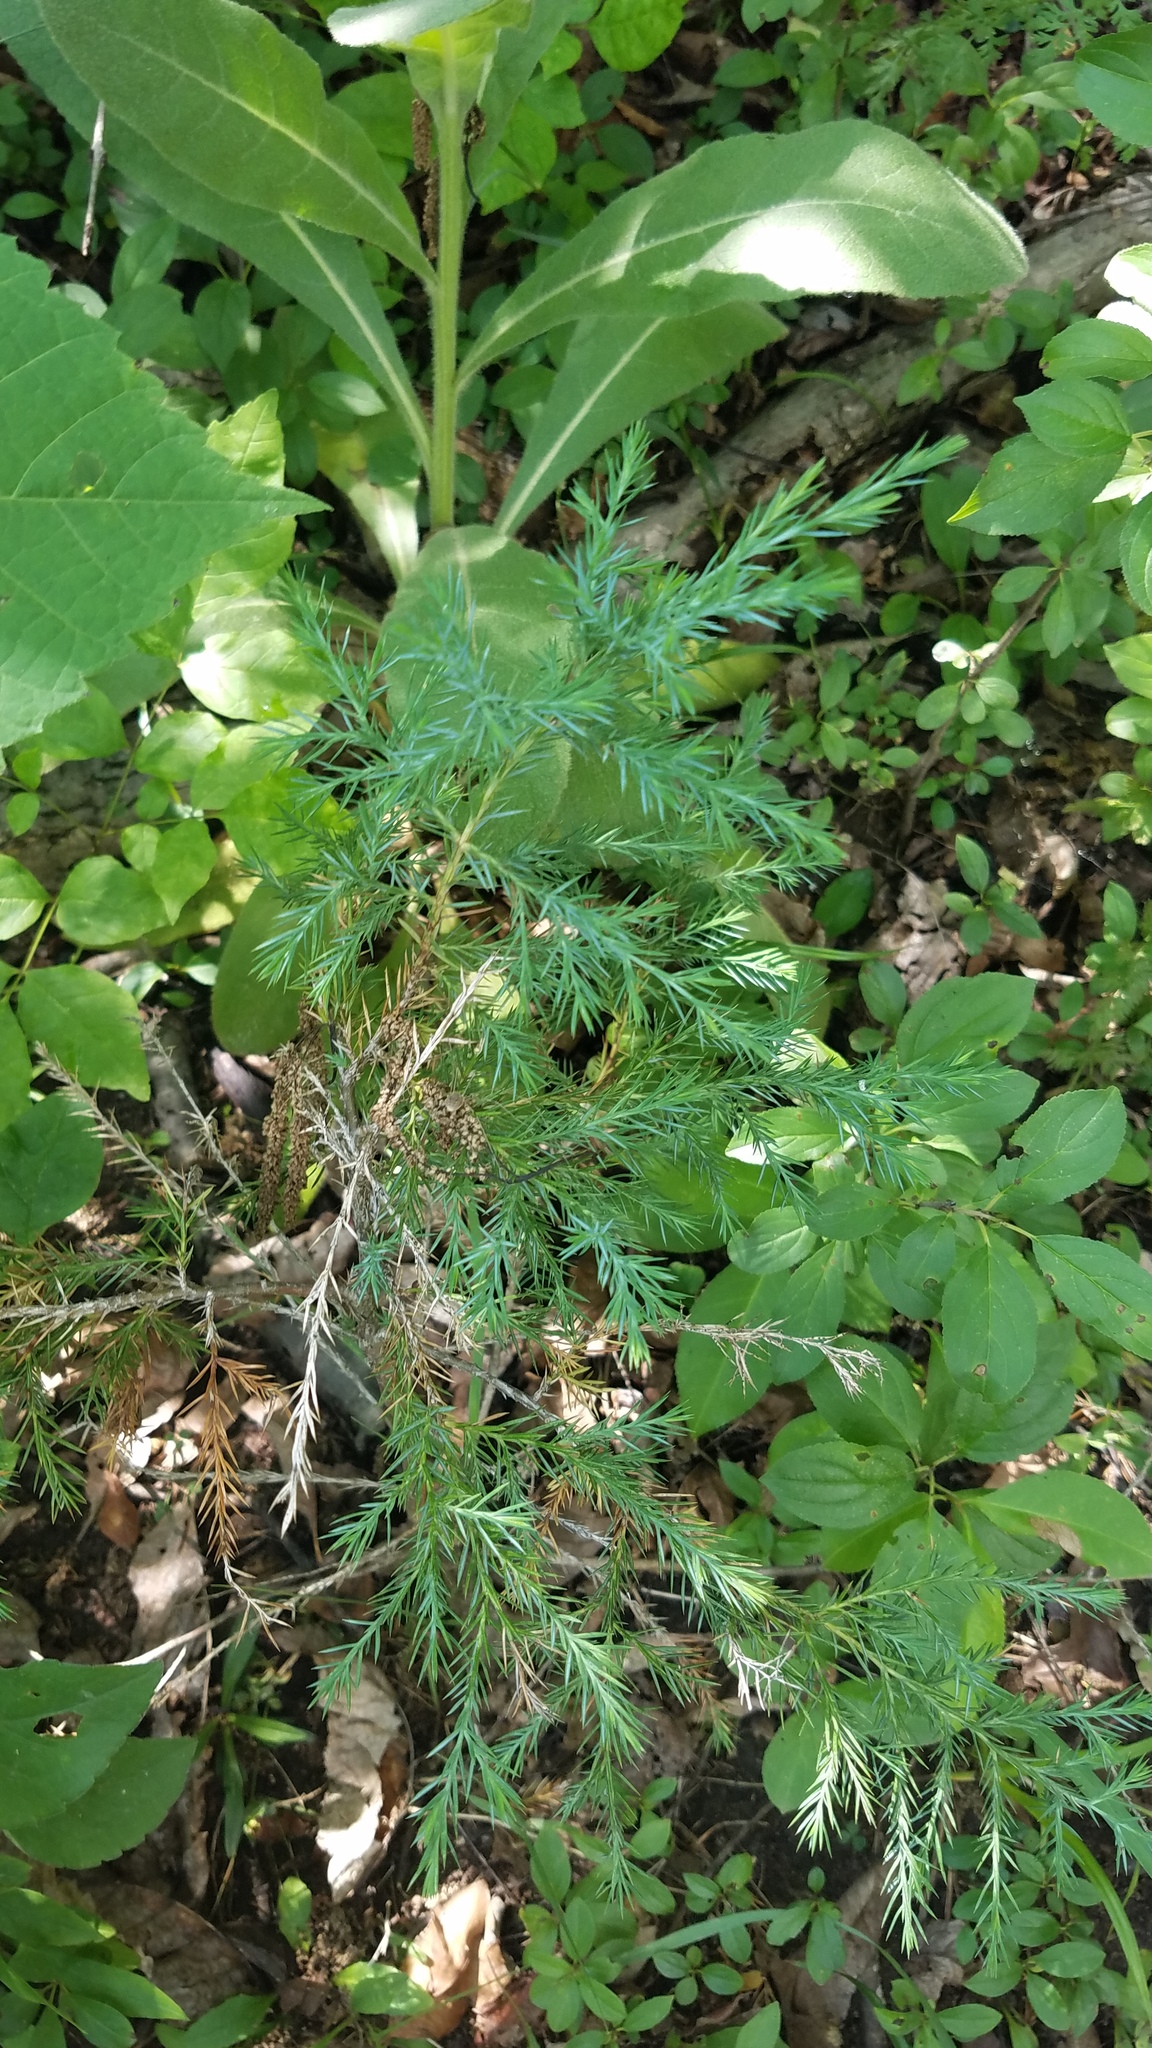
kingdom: Plantae
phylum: Tracheophyta
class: Pinopsida
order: Pinales
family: Cupressaceae
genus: Juniperus
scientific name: Juniperus virginiana
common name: Red juniper
